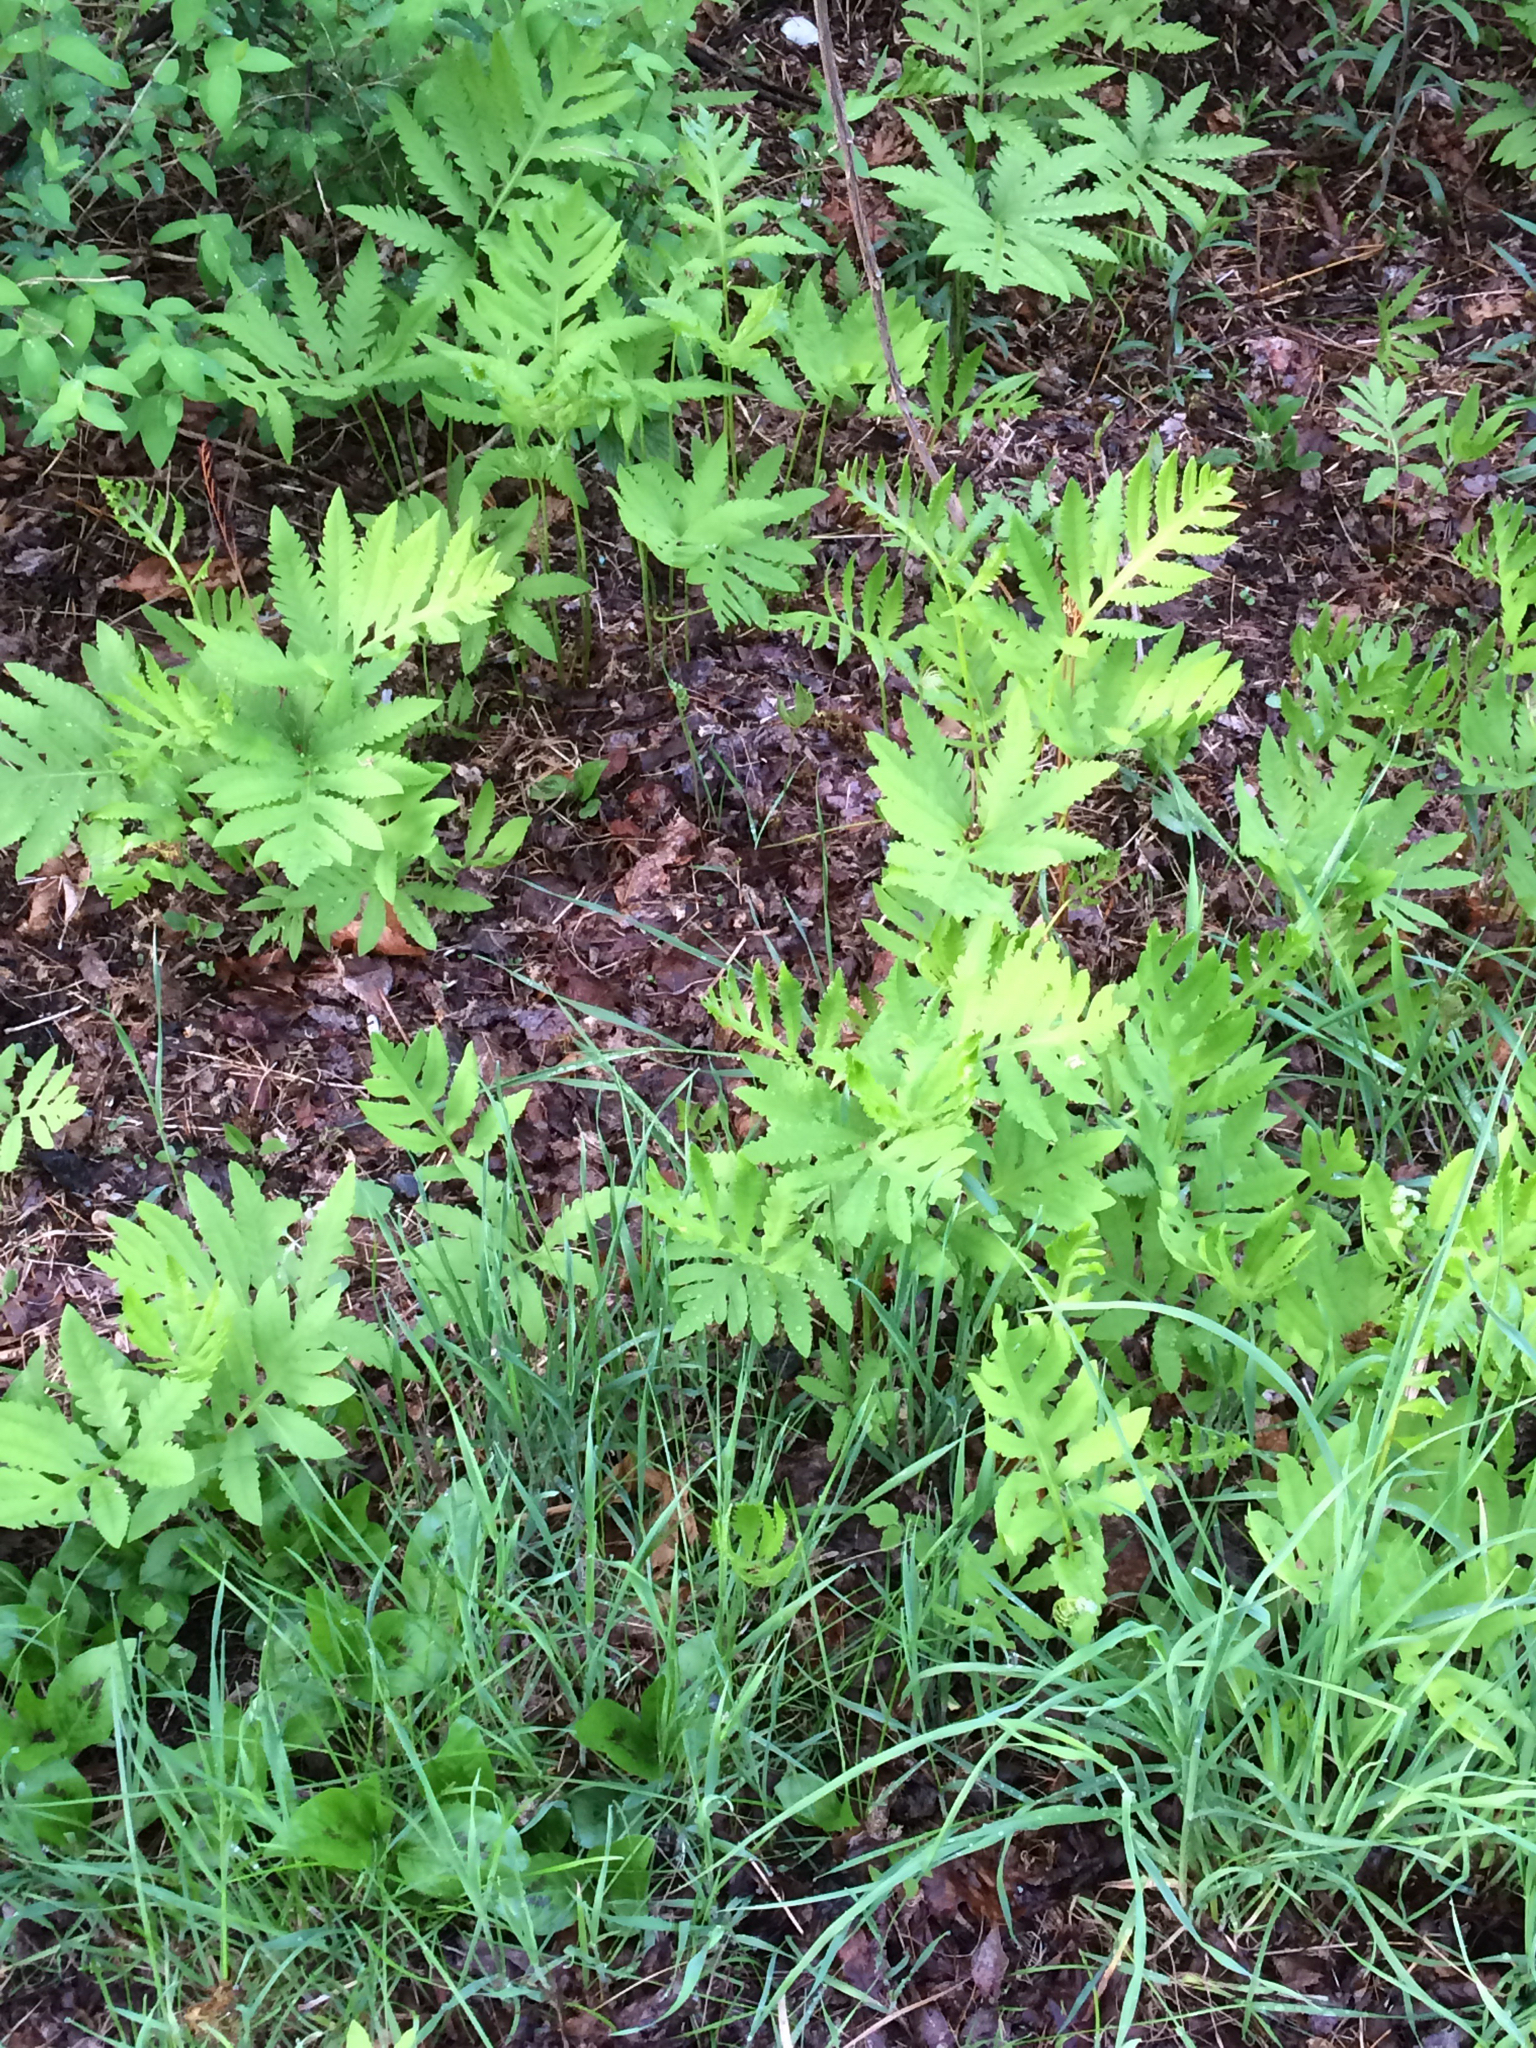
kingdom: Plantae
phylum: Tracheophyta
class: Polypodiopsida
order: Polypodiales
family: Onocleaceae
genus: Onoclea
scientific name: Onoclea sensibilis
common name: Sensitive fern
